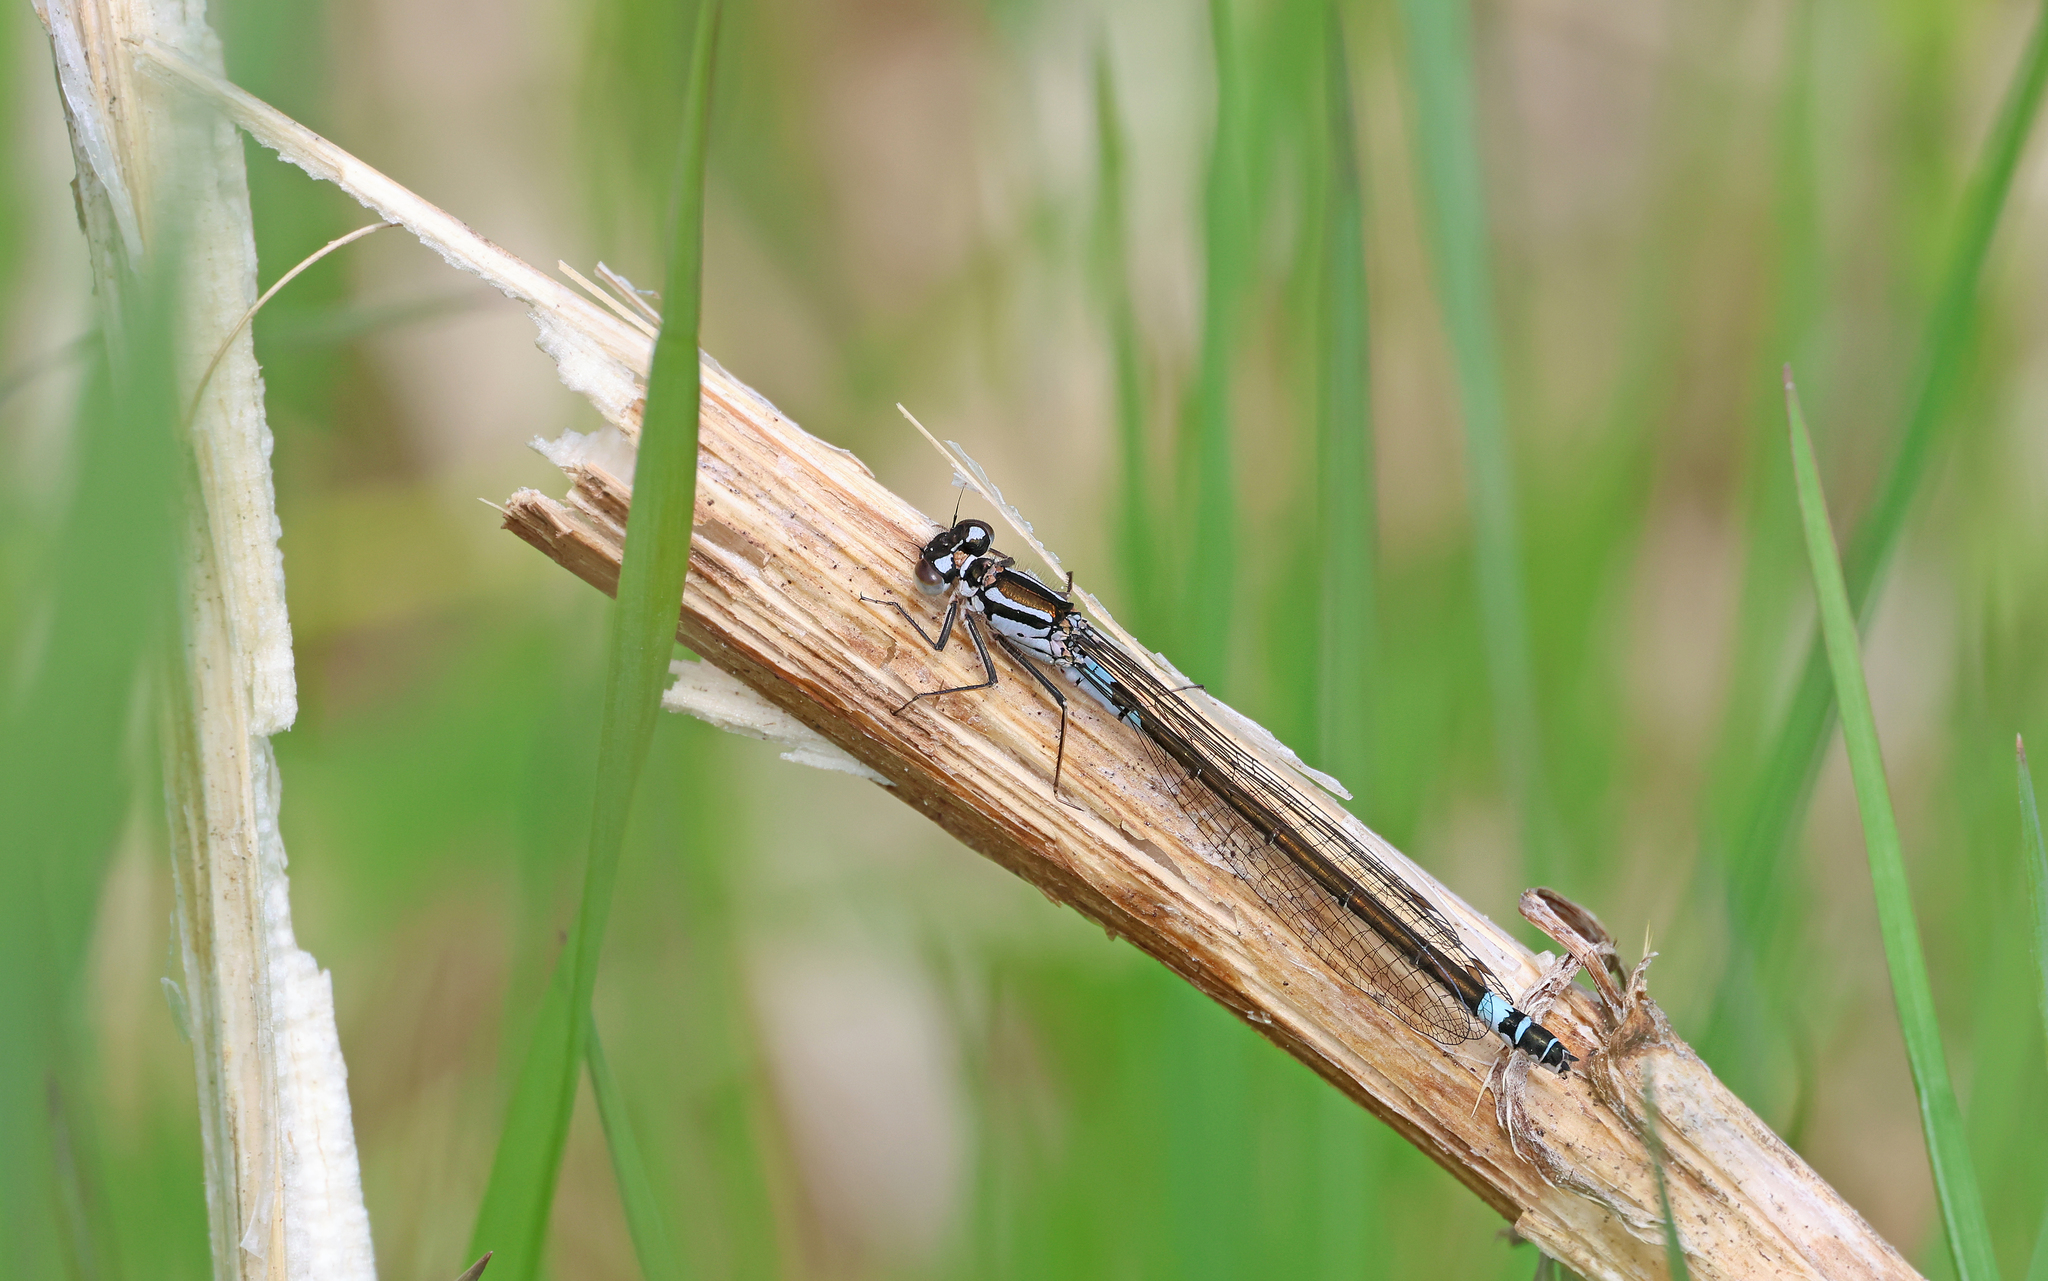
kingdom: Animalia
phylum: Arthropoda
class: Insecta
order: Odonata
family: Coenagrionidae
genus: Coenagrion
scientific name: Coenagrion armatum
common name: Dark bluet
